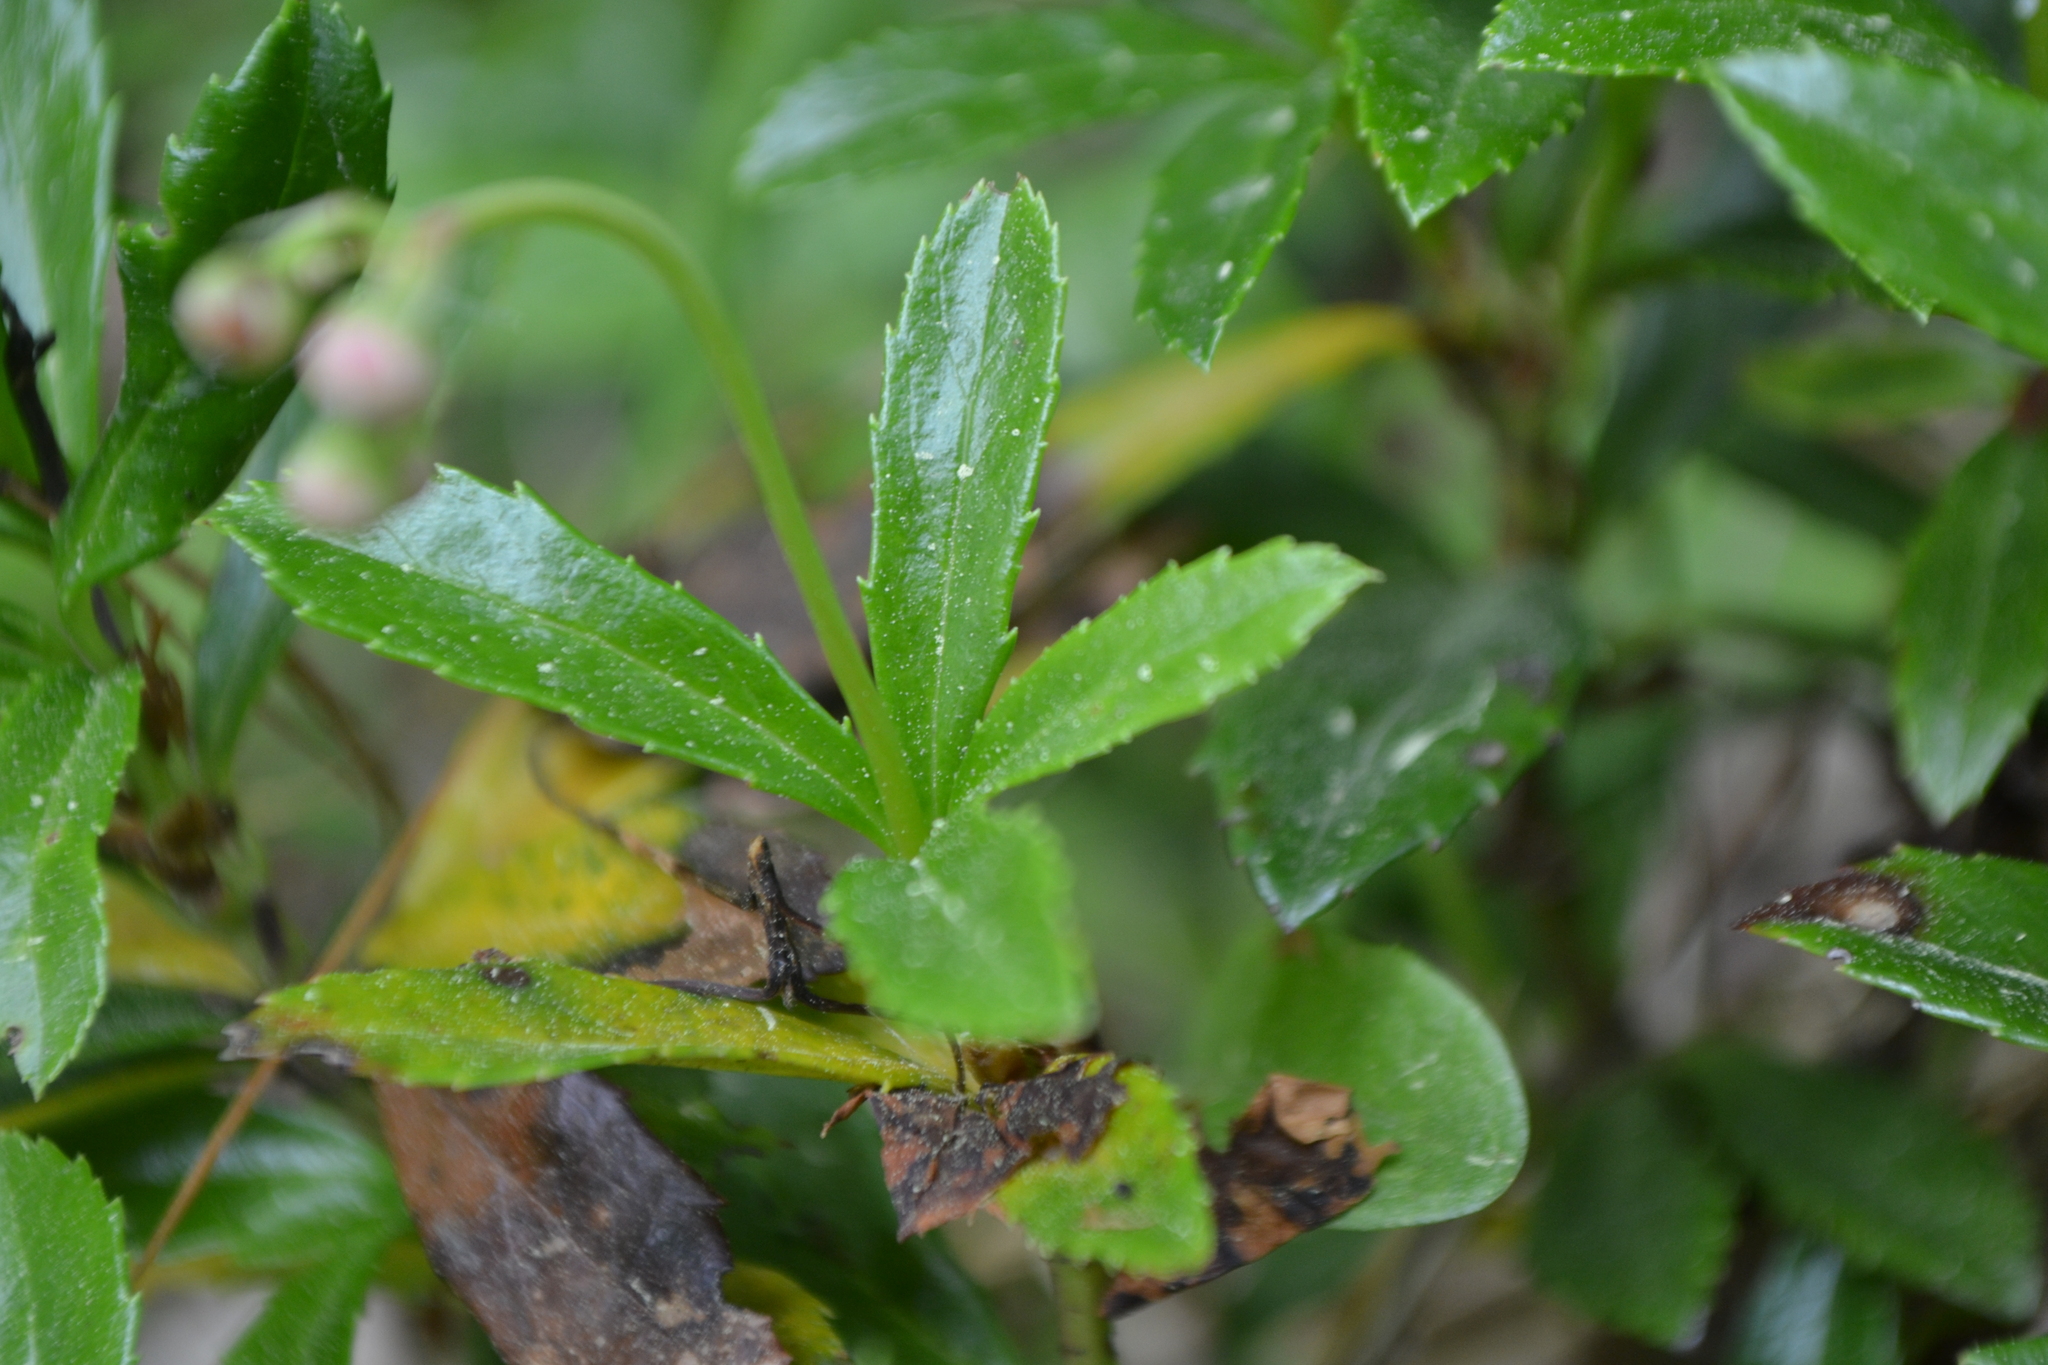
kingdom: Plantae
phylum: Tracheophyta
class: Magnoliopsida
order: Ericales
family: Ericaceae
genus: Chimaphila
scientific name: Chimaphila umbellata
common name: Pipsissewa
